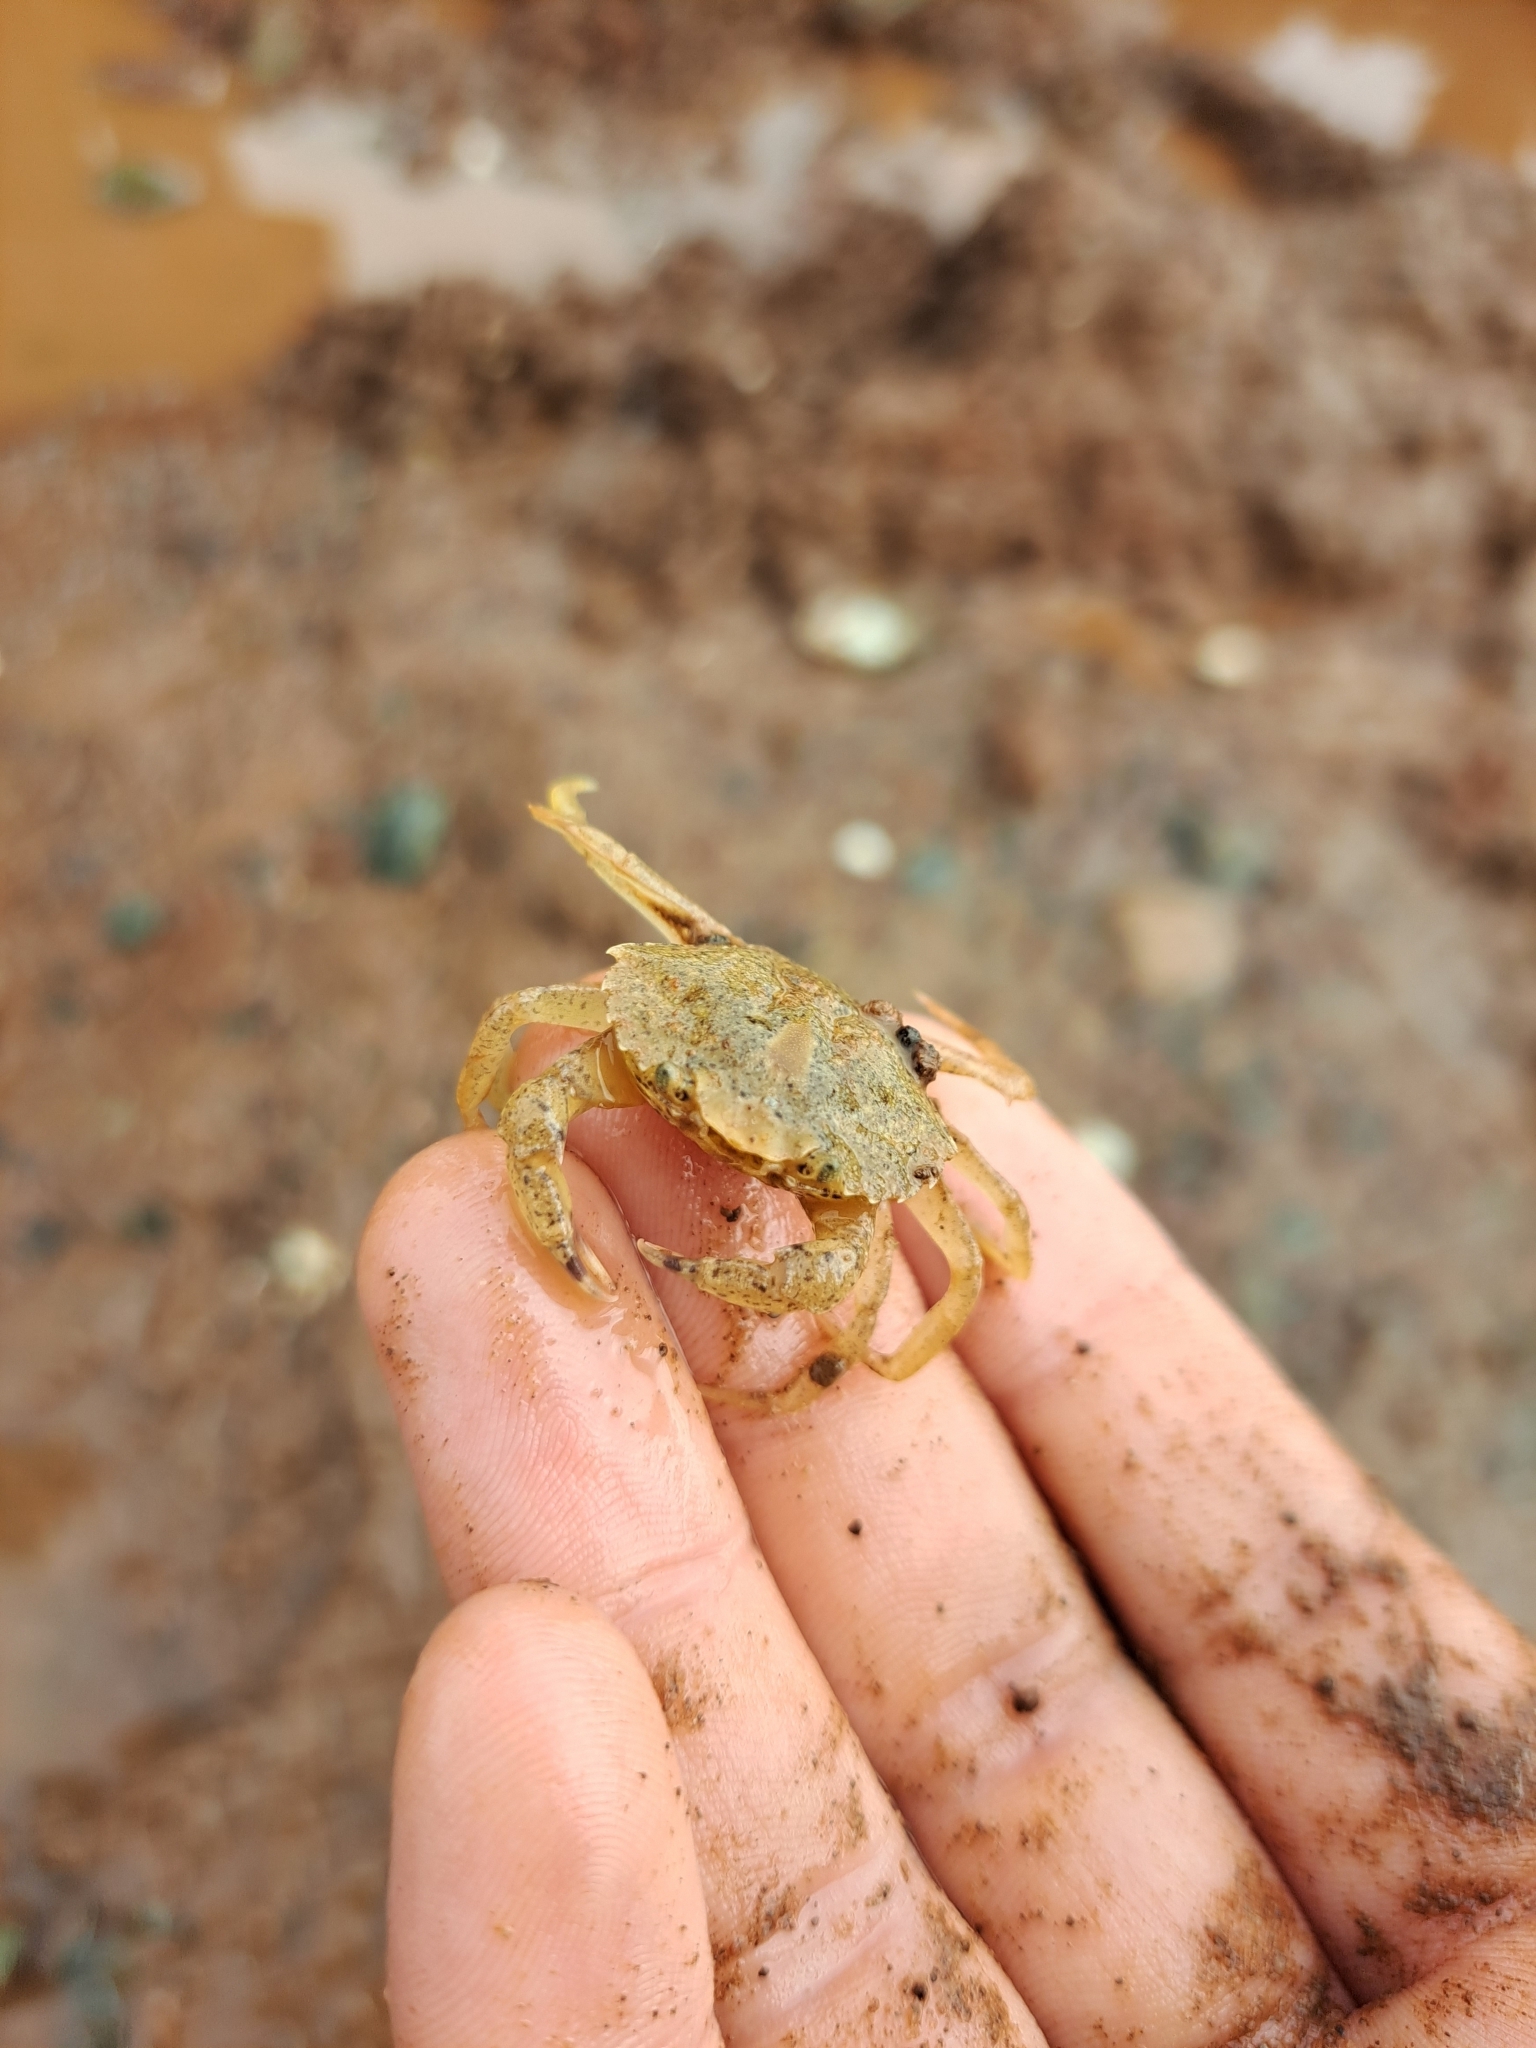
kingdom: Animalia
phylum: Arthropoda
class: Malacostraca
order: Decapoda
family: Carcinidae
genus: Carcinus
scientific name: Carcinus maenas
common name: European green crab
